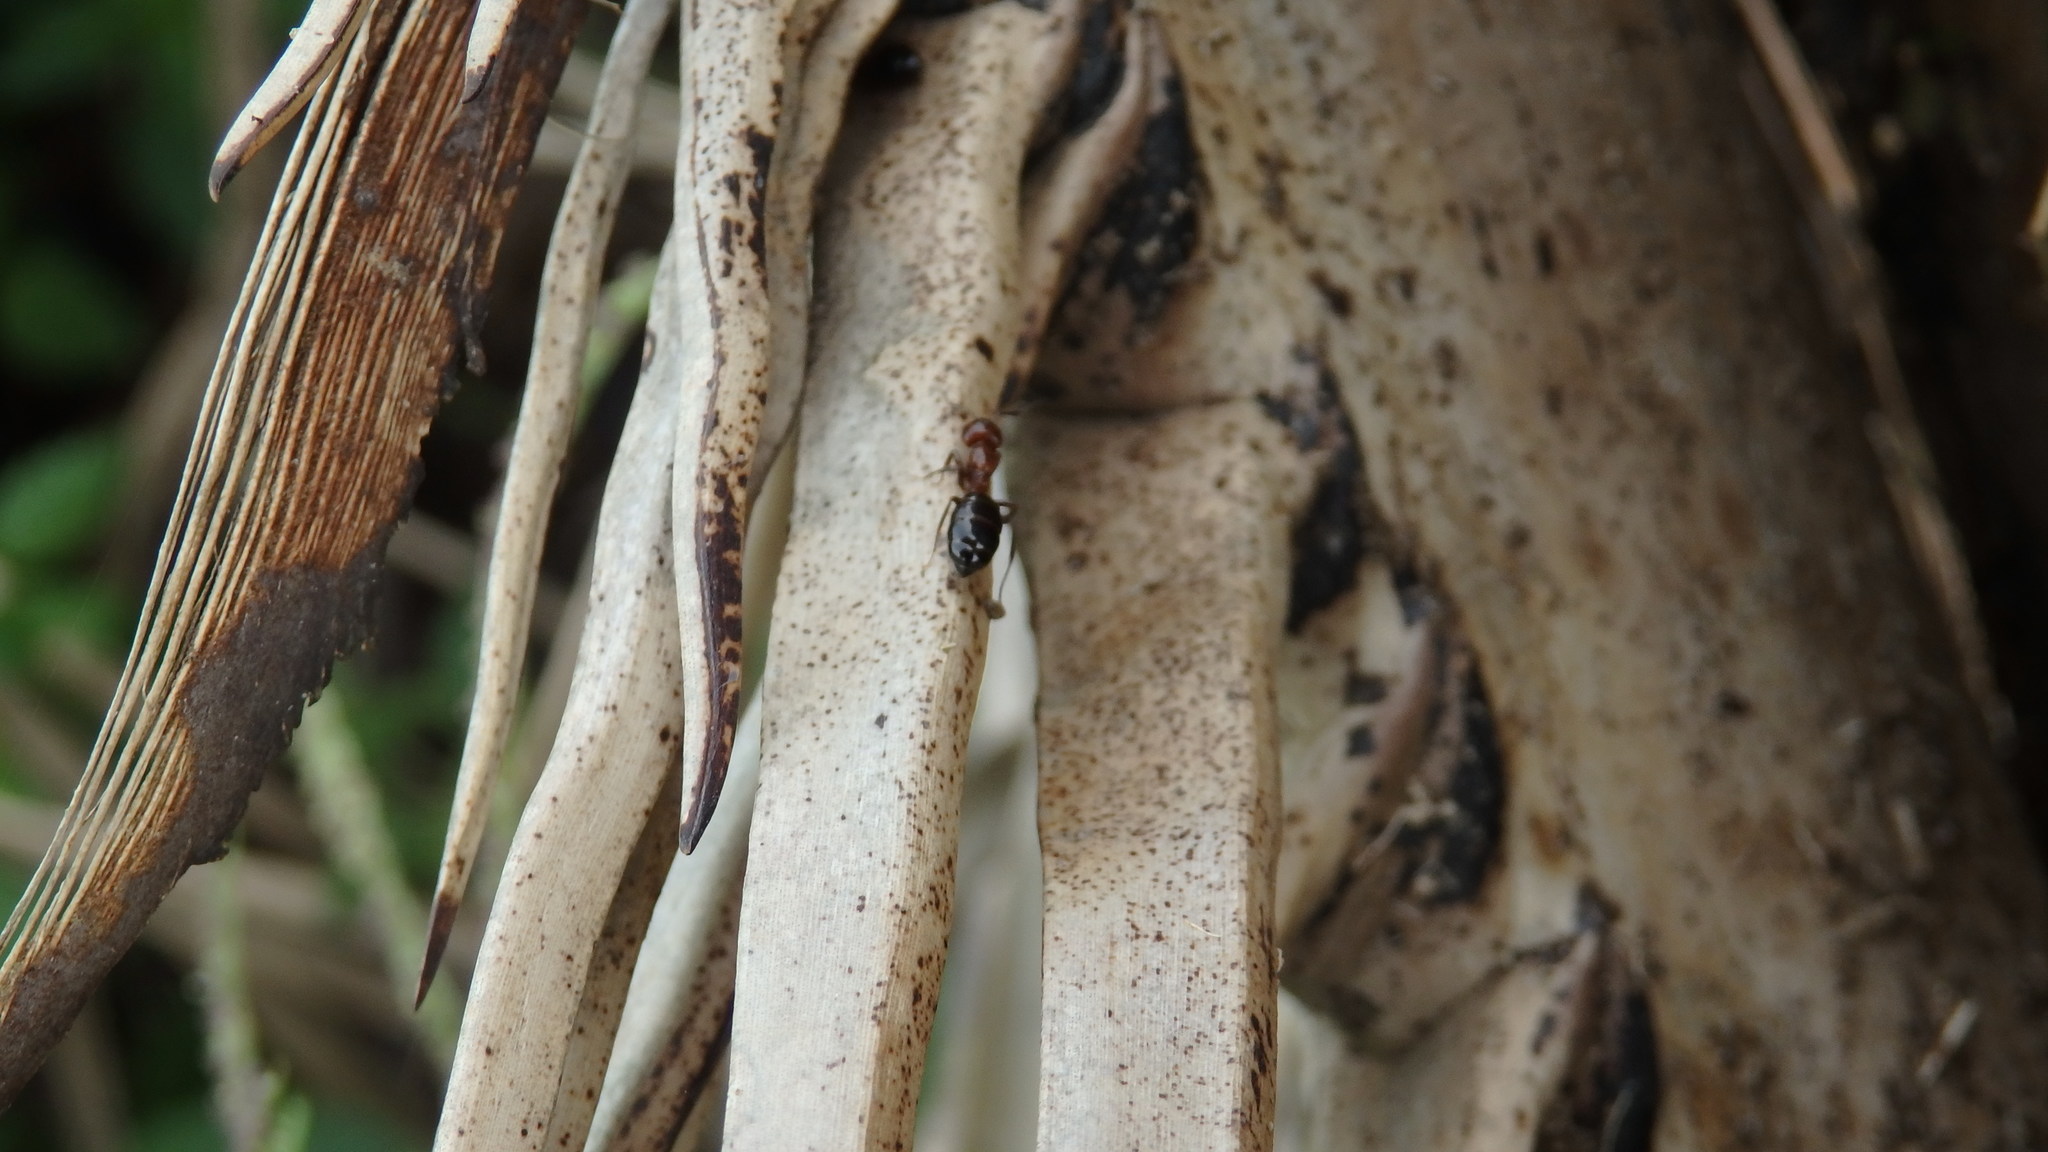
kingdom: Animalia
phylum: Arthropoda
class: Insecta
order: Hymenoptera
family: Formicidae
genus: Camponotus
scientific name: Camponotus lateralis
